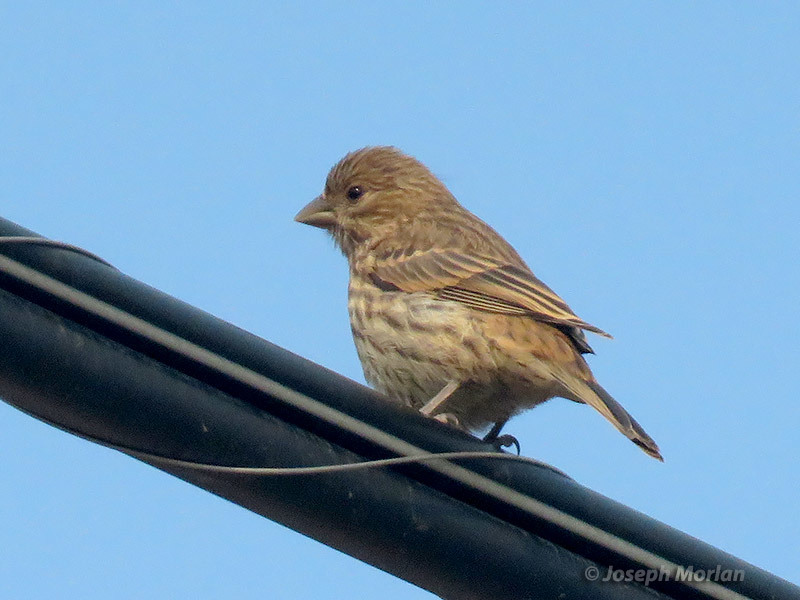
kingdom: Animalia
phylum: Chordata
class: Aves
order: Passeriformes
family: Fringillidae
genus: Haemorhous
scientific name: Haemorhous mexicanus
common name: House finch
